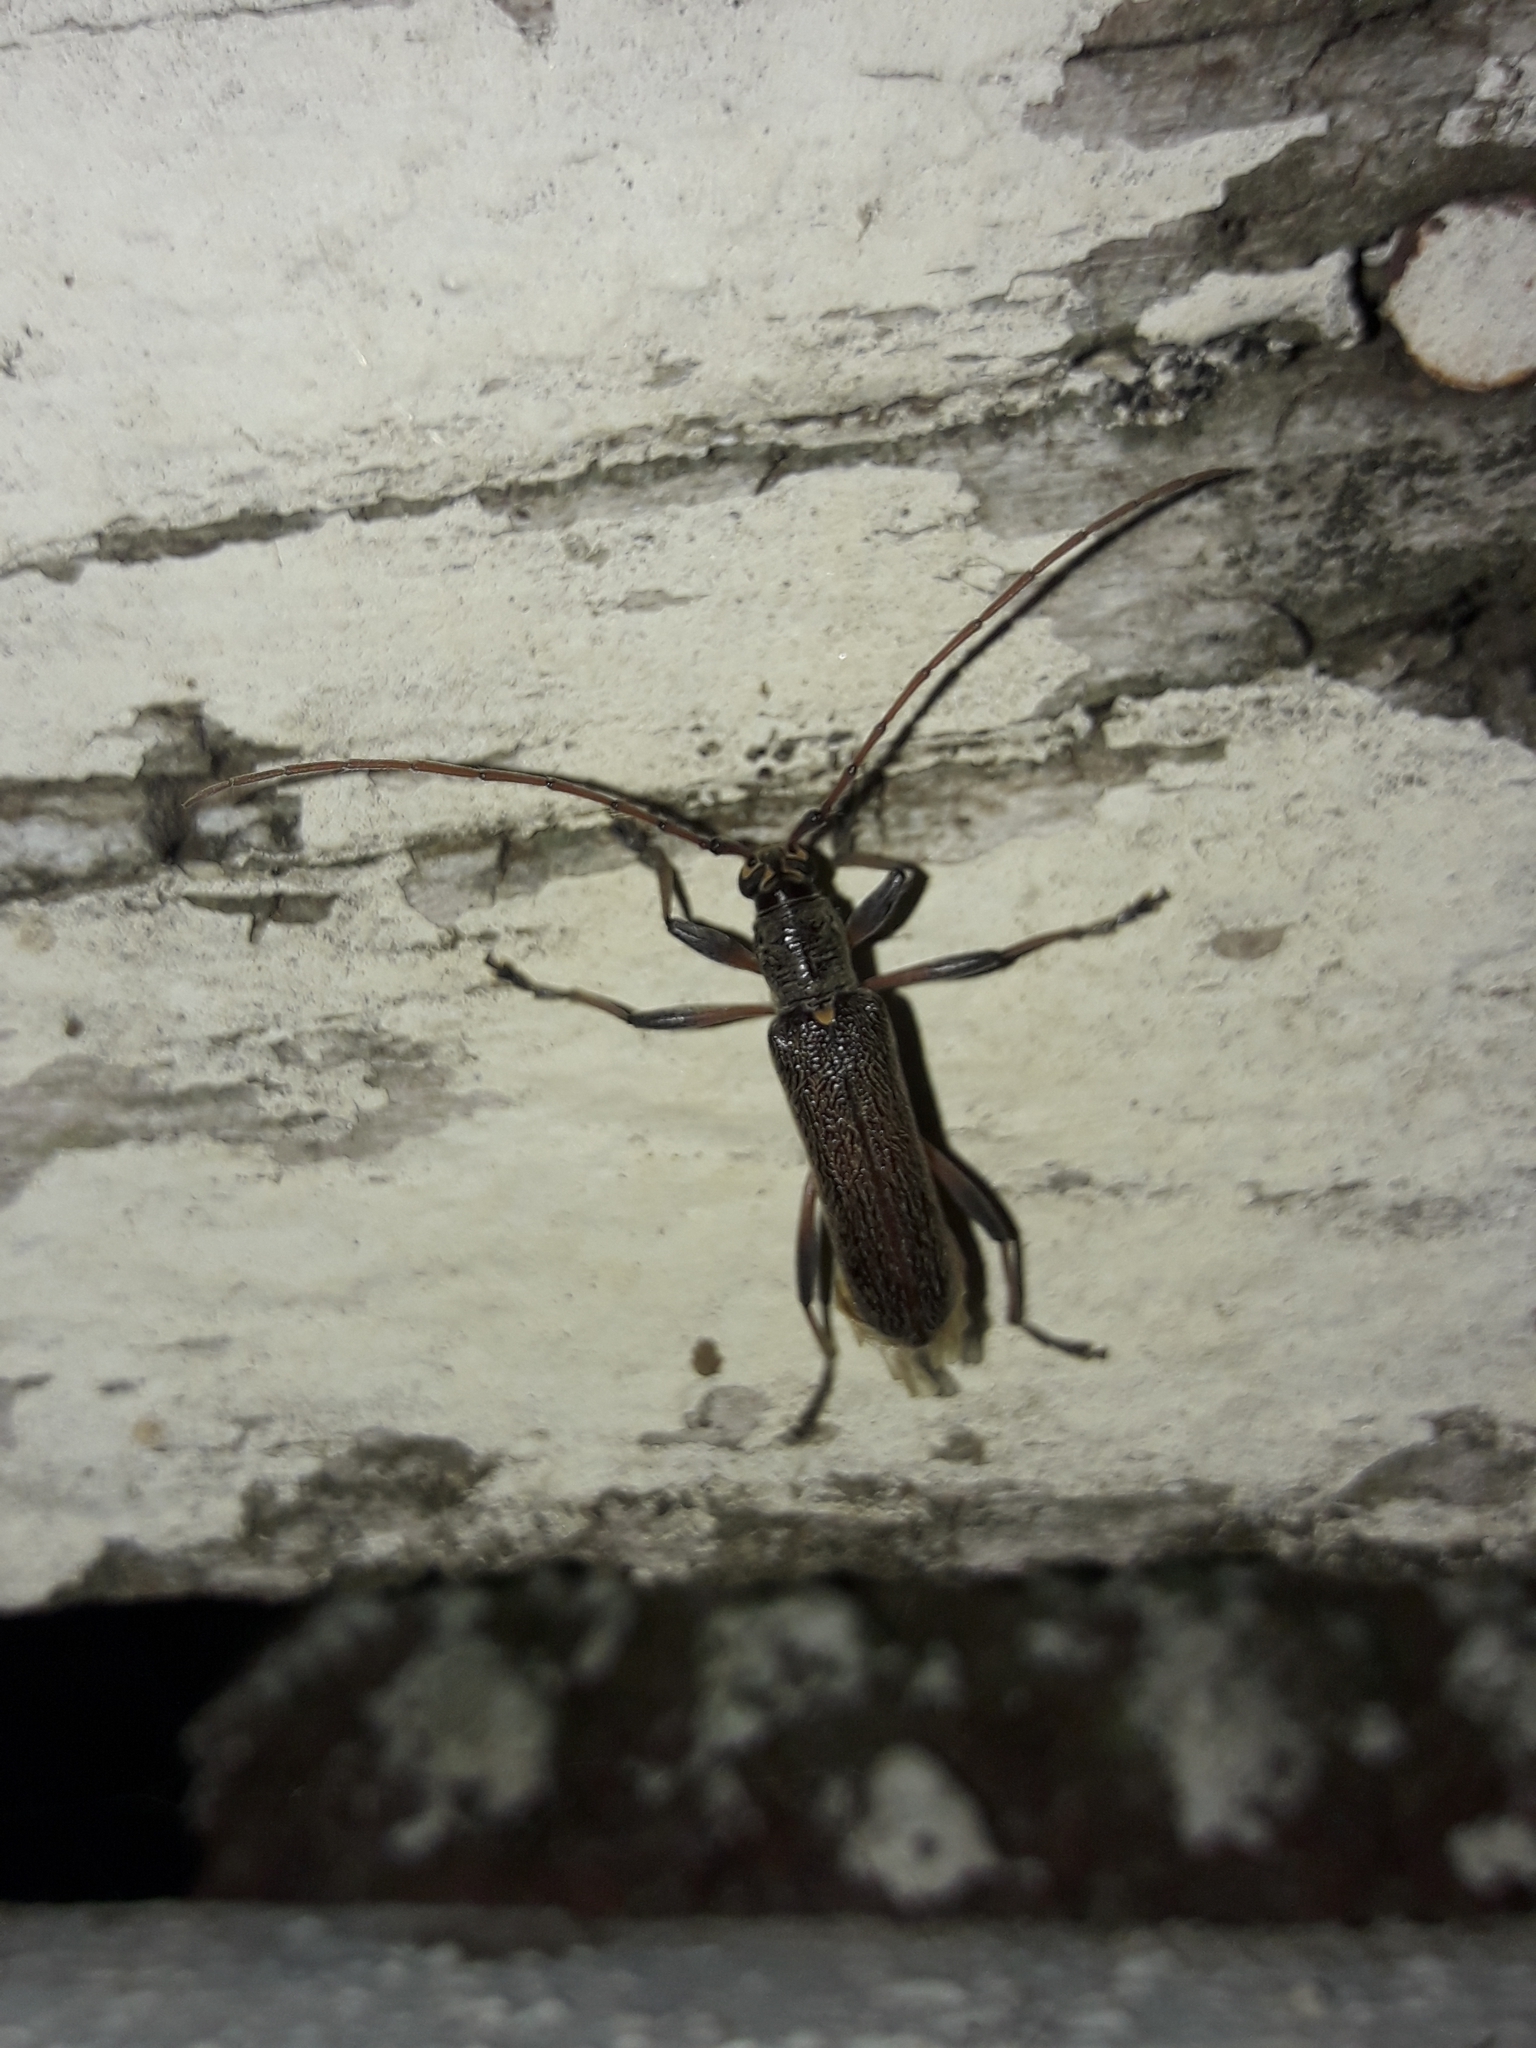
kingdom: Animalia
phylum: Arthropoda
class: Insecta
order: Coleoptera
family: Cerambycidae
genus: Oemona
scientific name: Oemona hirta
